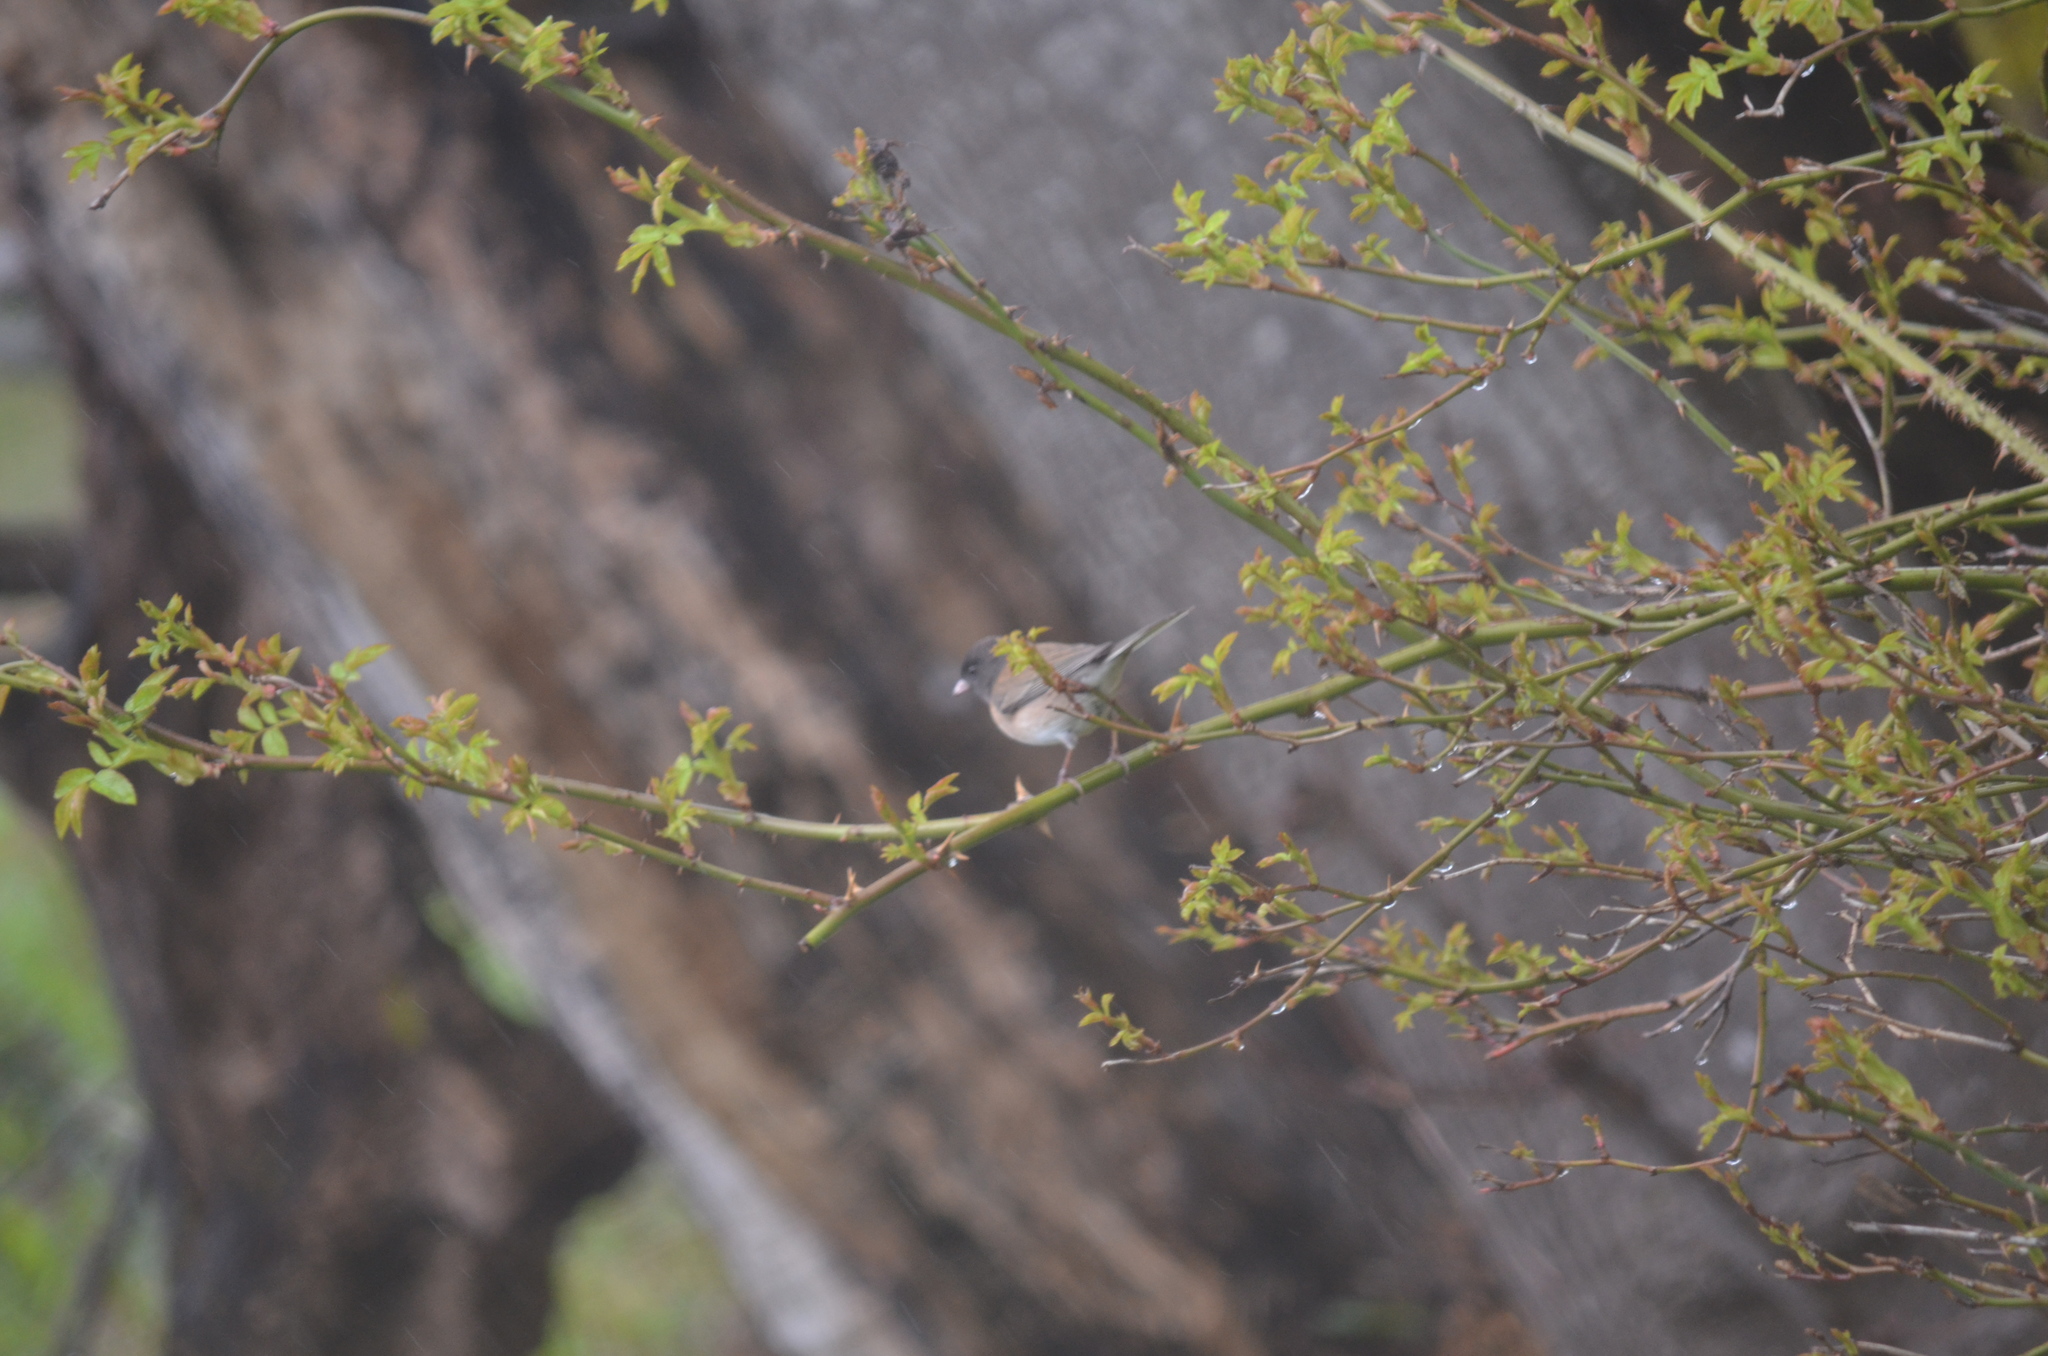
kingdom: Animalia
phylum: Chordata
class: Aves
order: Passeriformes
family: Passerellidae
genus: Junco
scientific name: Junco hyemalis
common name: Dark-eyed junco
